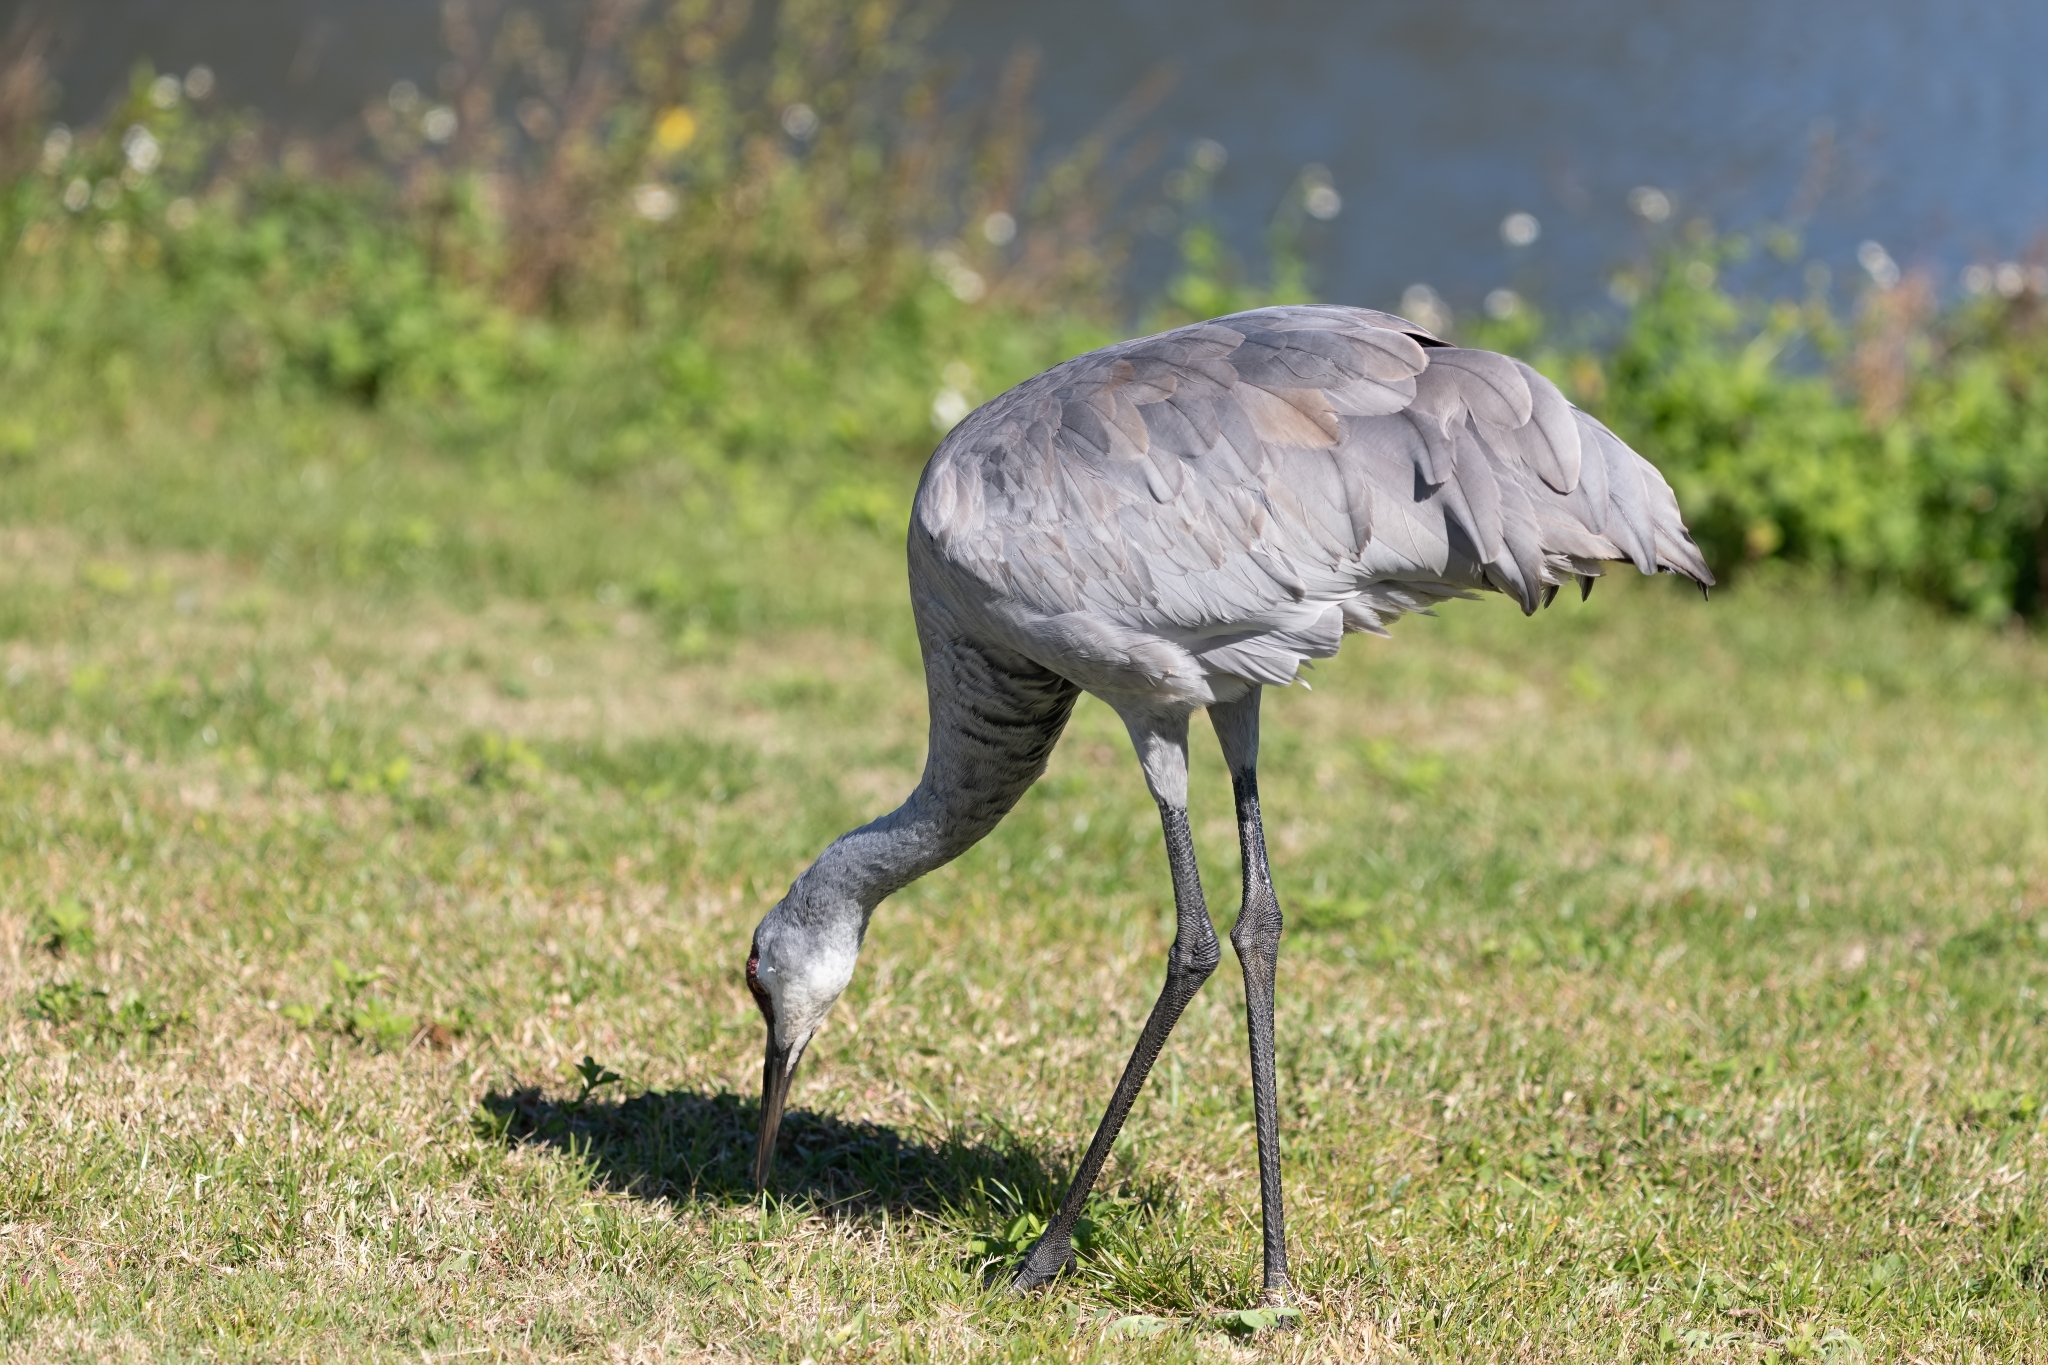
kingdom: Animalia
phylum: Chordata
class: Aves
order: Gruiformes
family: Gruidae
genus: Grus
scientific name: Grus canadensis
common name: Sandhill crane
